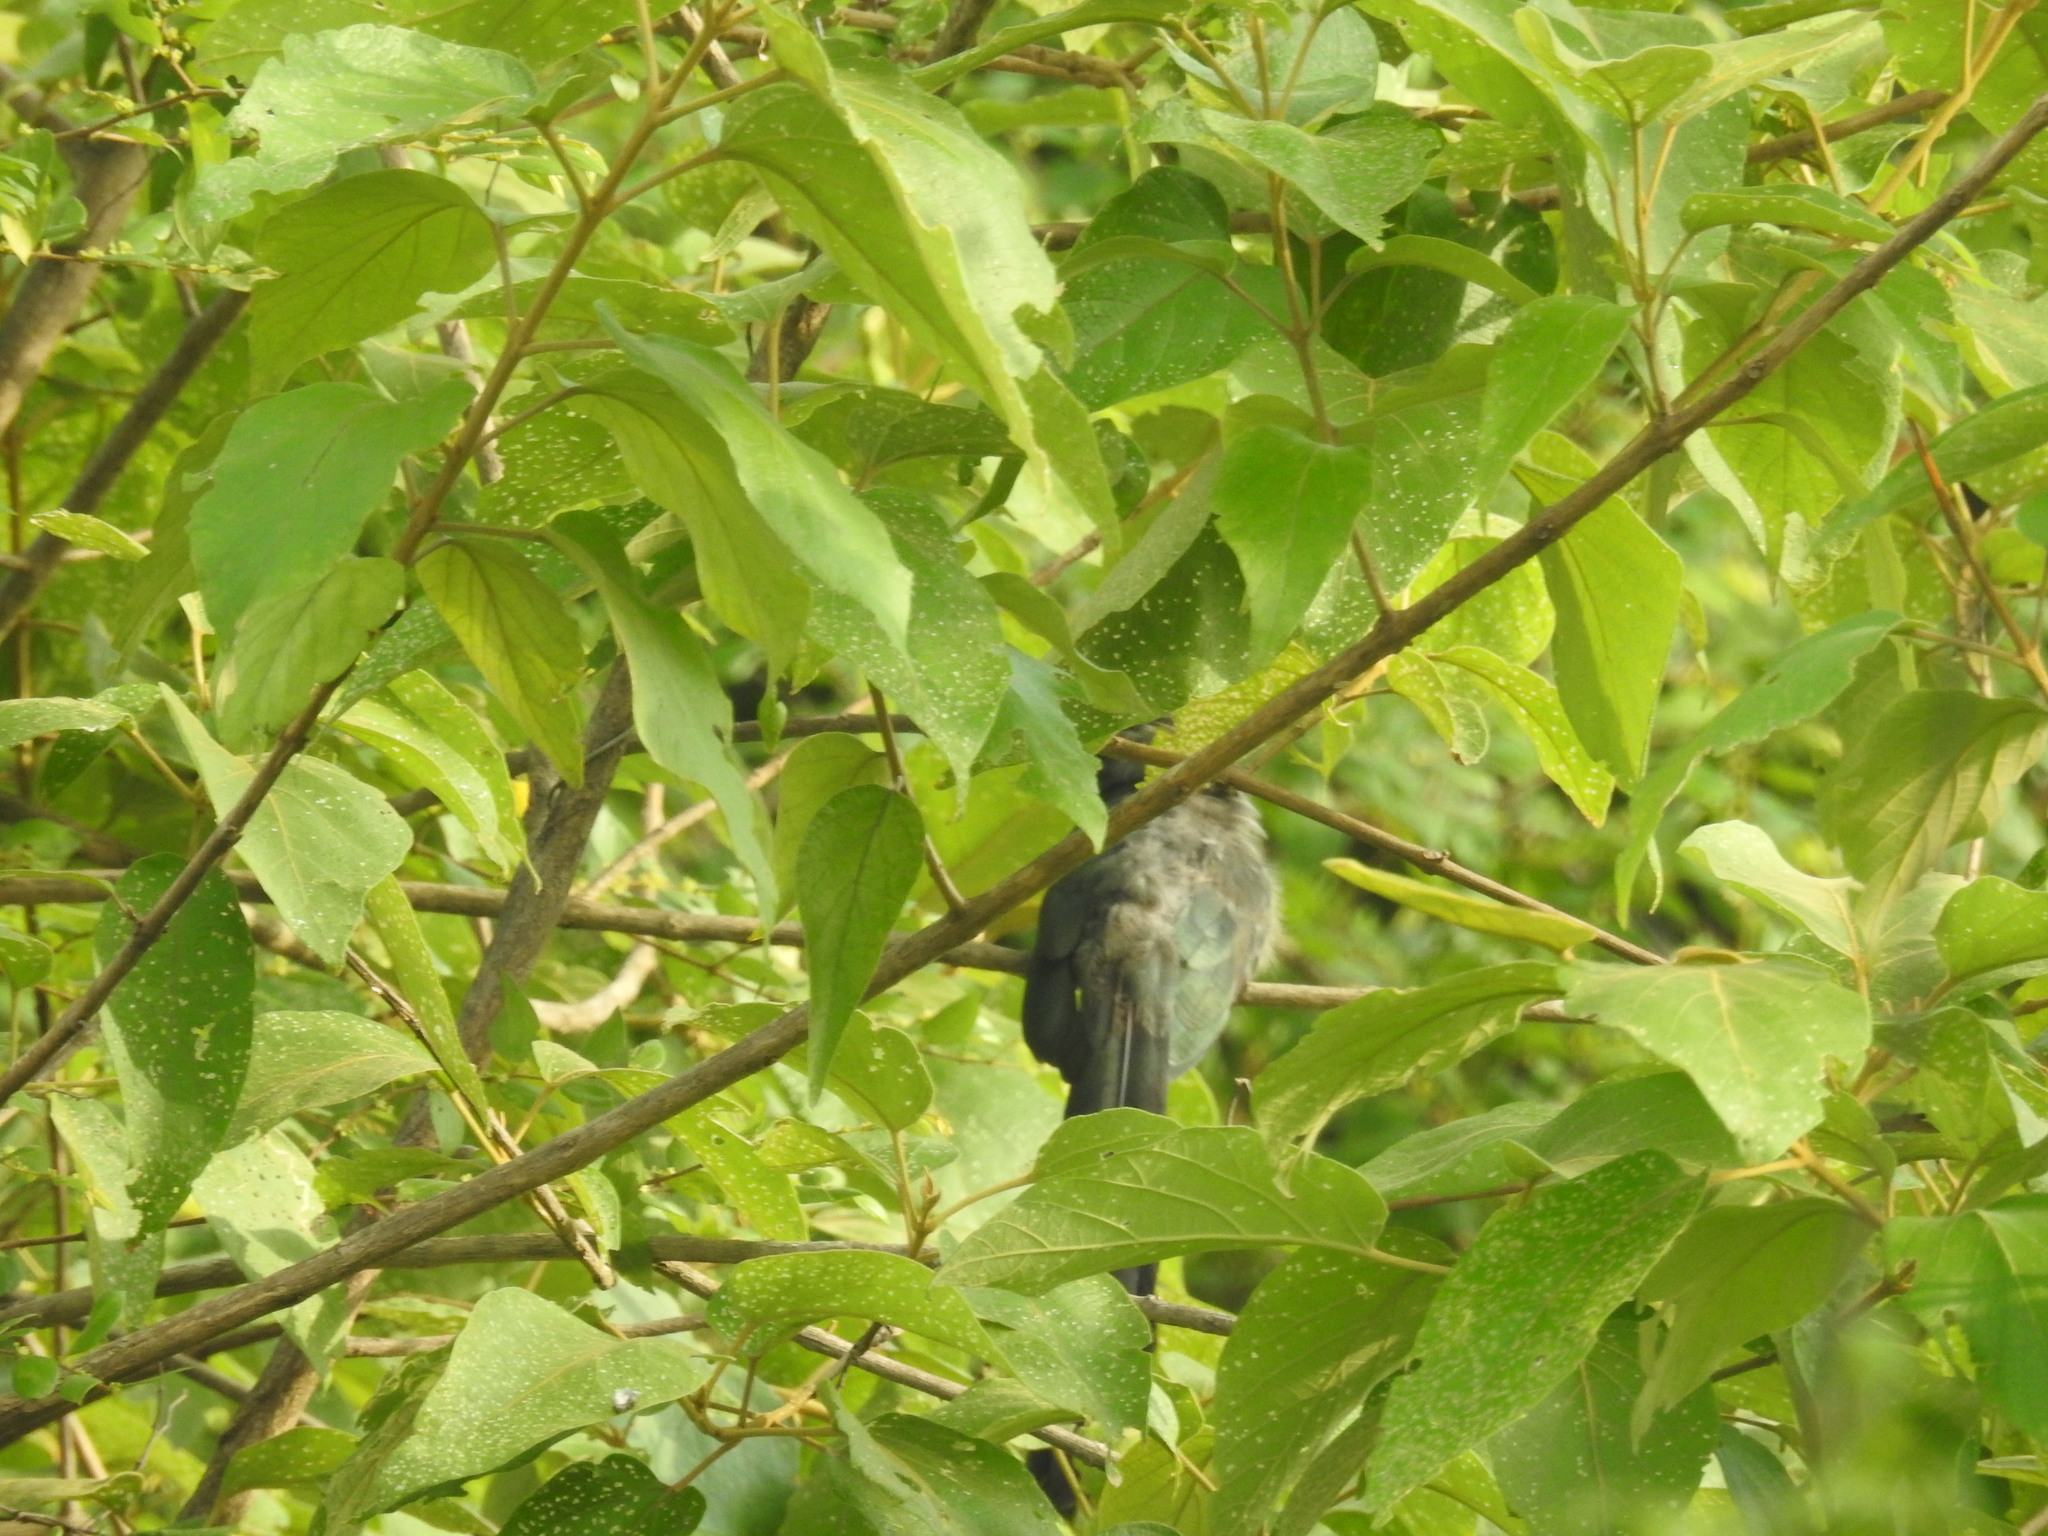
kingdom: Animalia
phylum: Chordata
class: Aves
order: Cuculiformes
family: Cuculidae
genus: Rhopodytes
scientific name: Rhopodytes viridirostris
